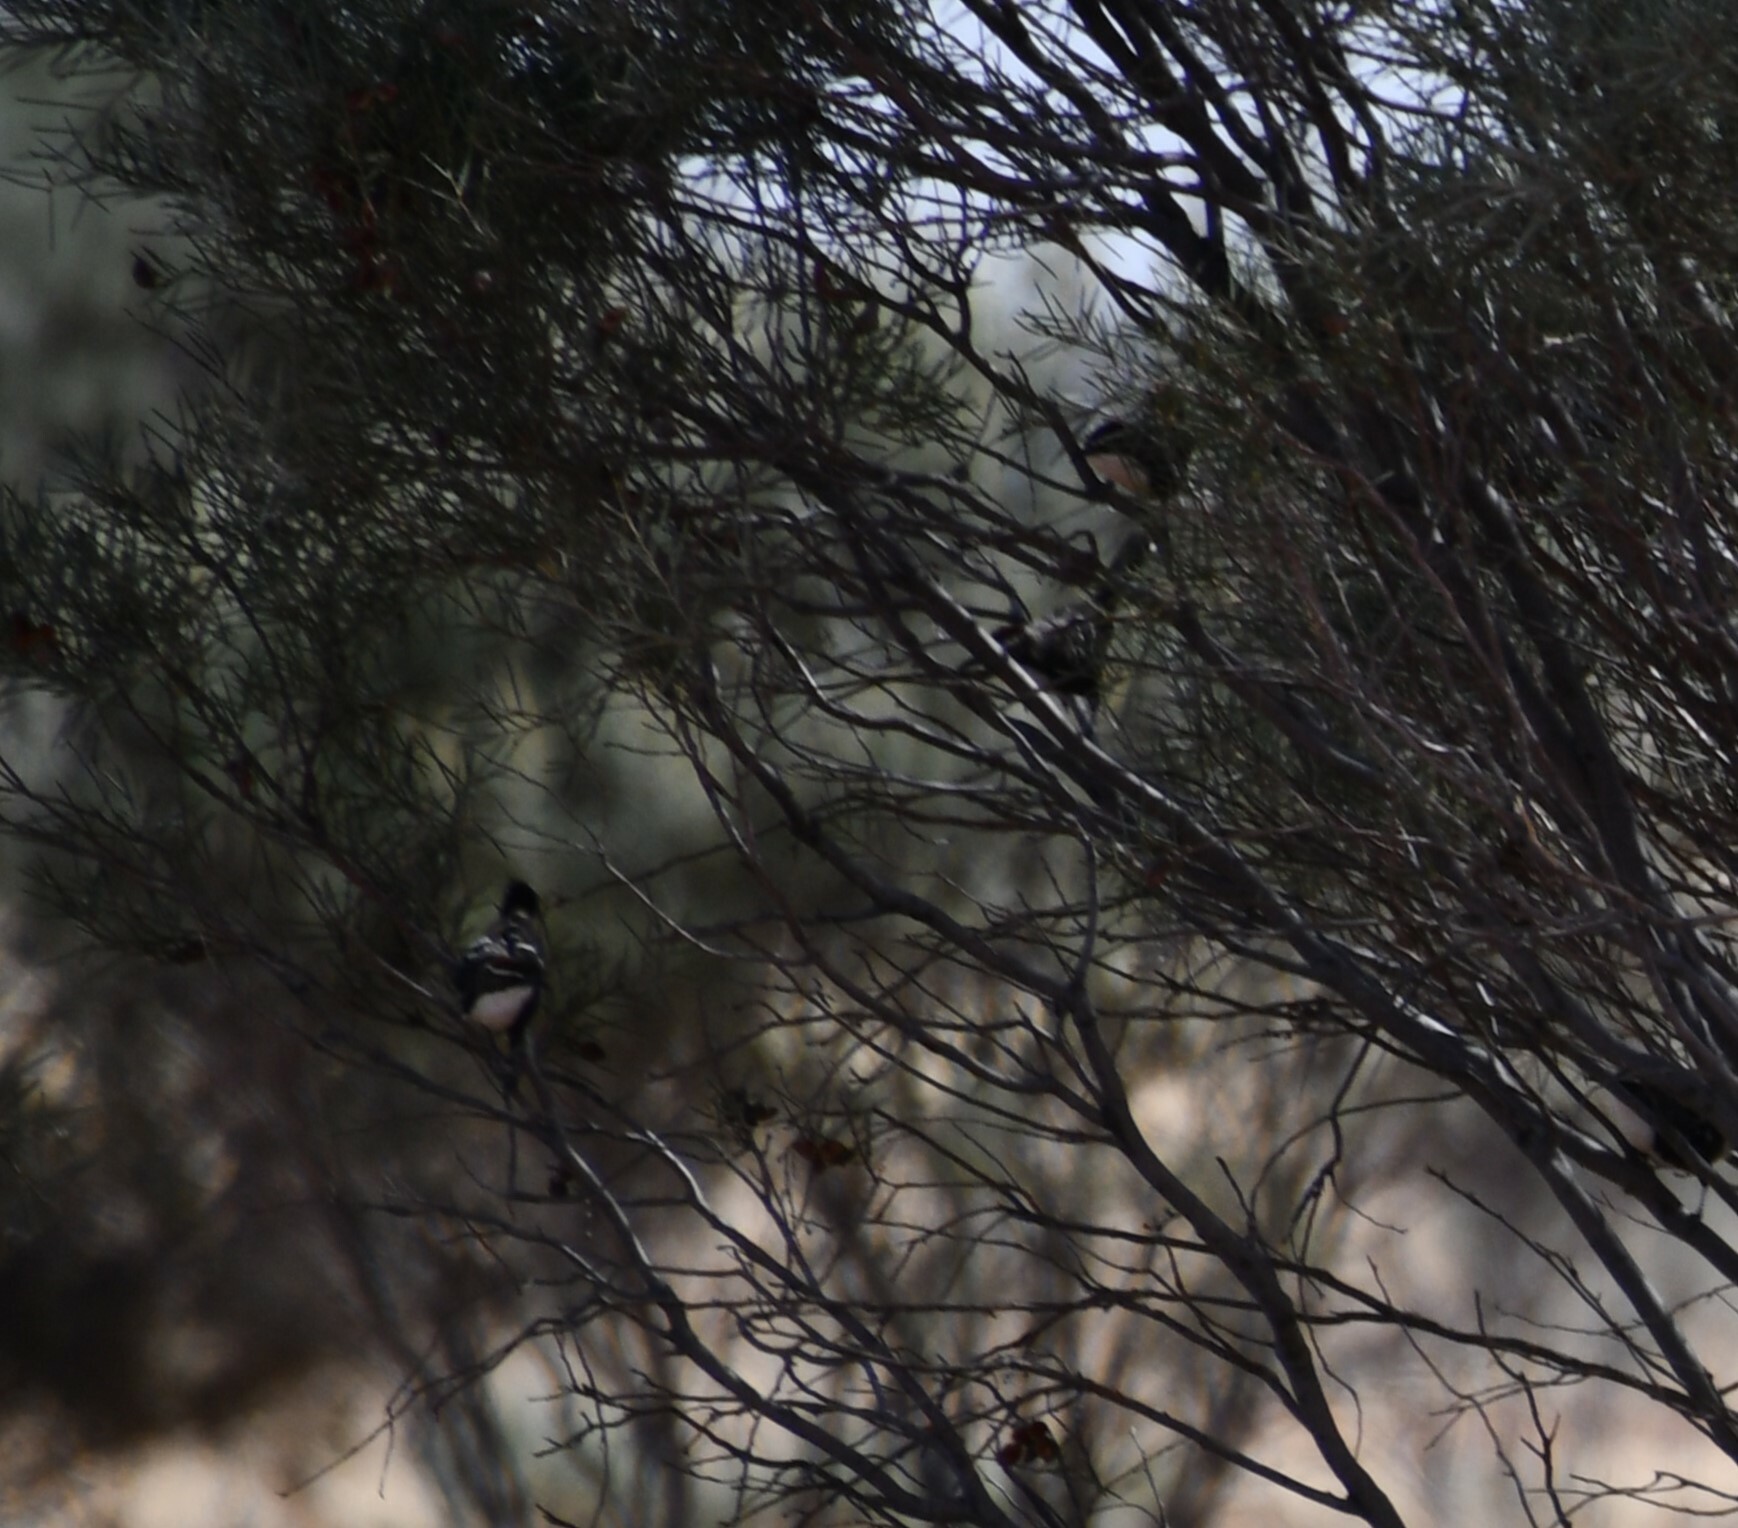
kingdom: Animalia
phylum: Chordata
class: Aves
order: Passeriformes
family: Pomatostomidae
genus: Pomatostomus
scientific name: Pomatostomus ruficeps
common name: Chestnut-crowned babbler
